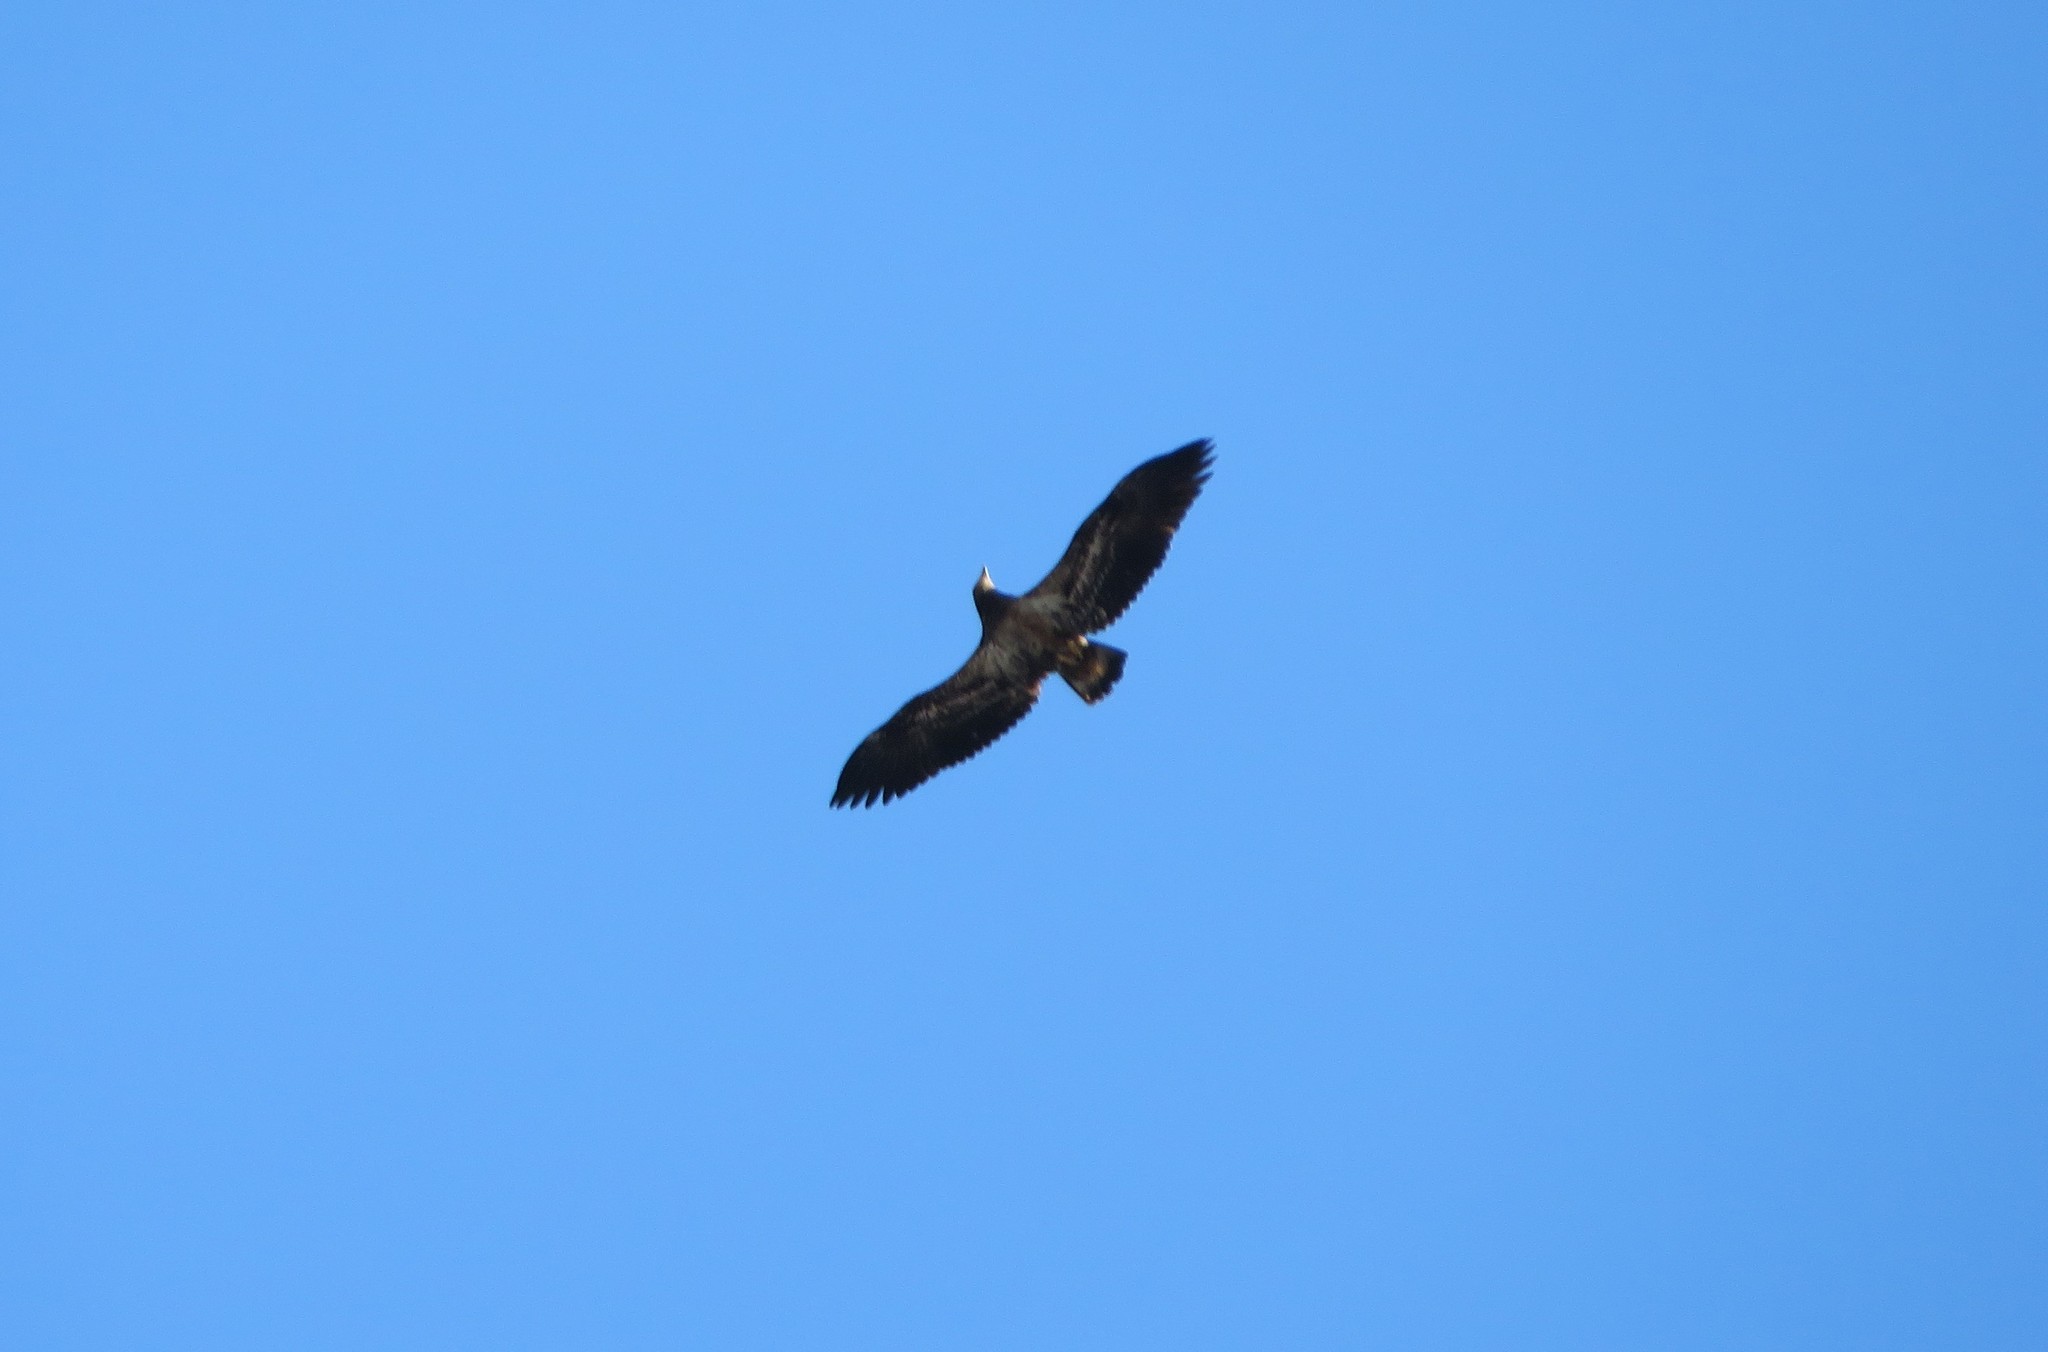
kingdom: Animalia
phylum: Chordata
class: Aves
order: Accipitriformes
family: Accipitridae
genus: Haliaeetus
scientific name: Haliaeetus leucocephalus
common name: Bald eagle
